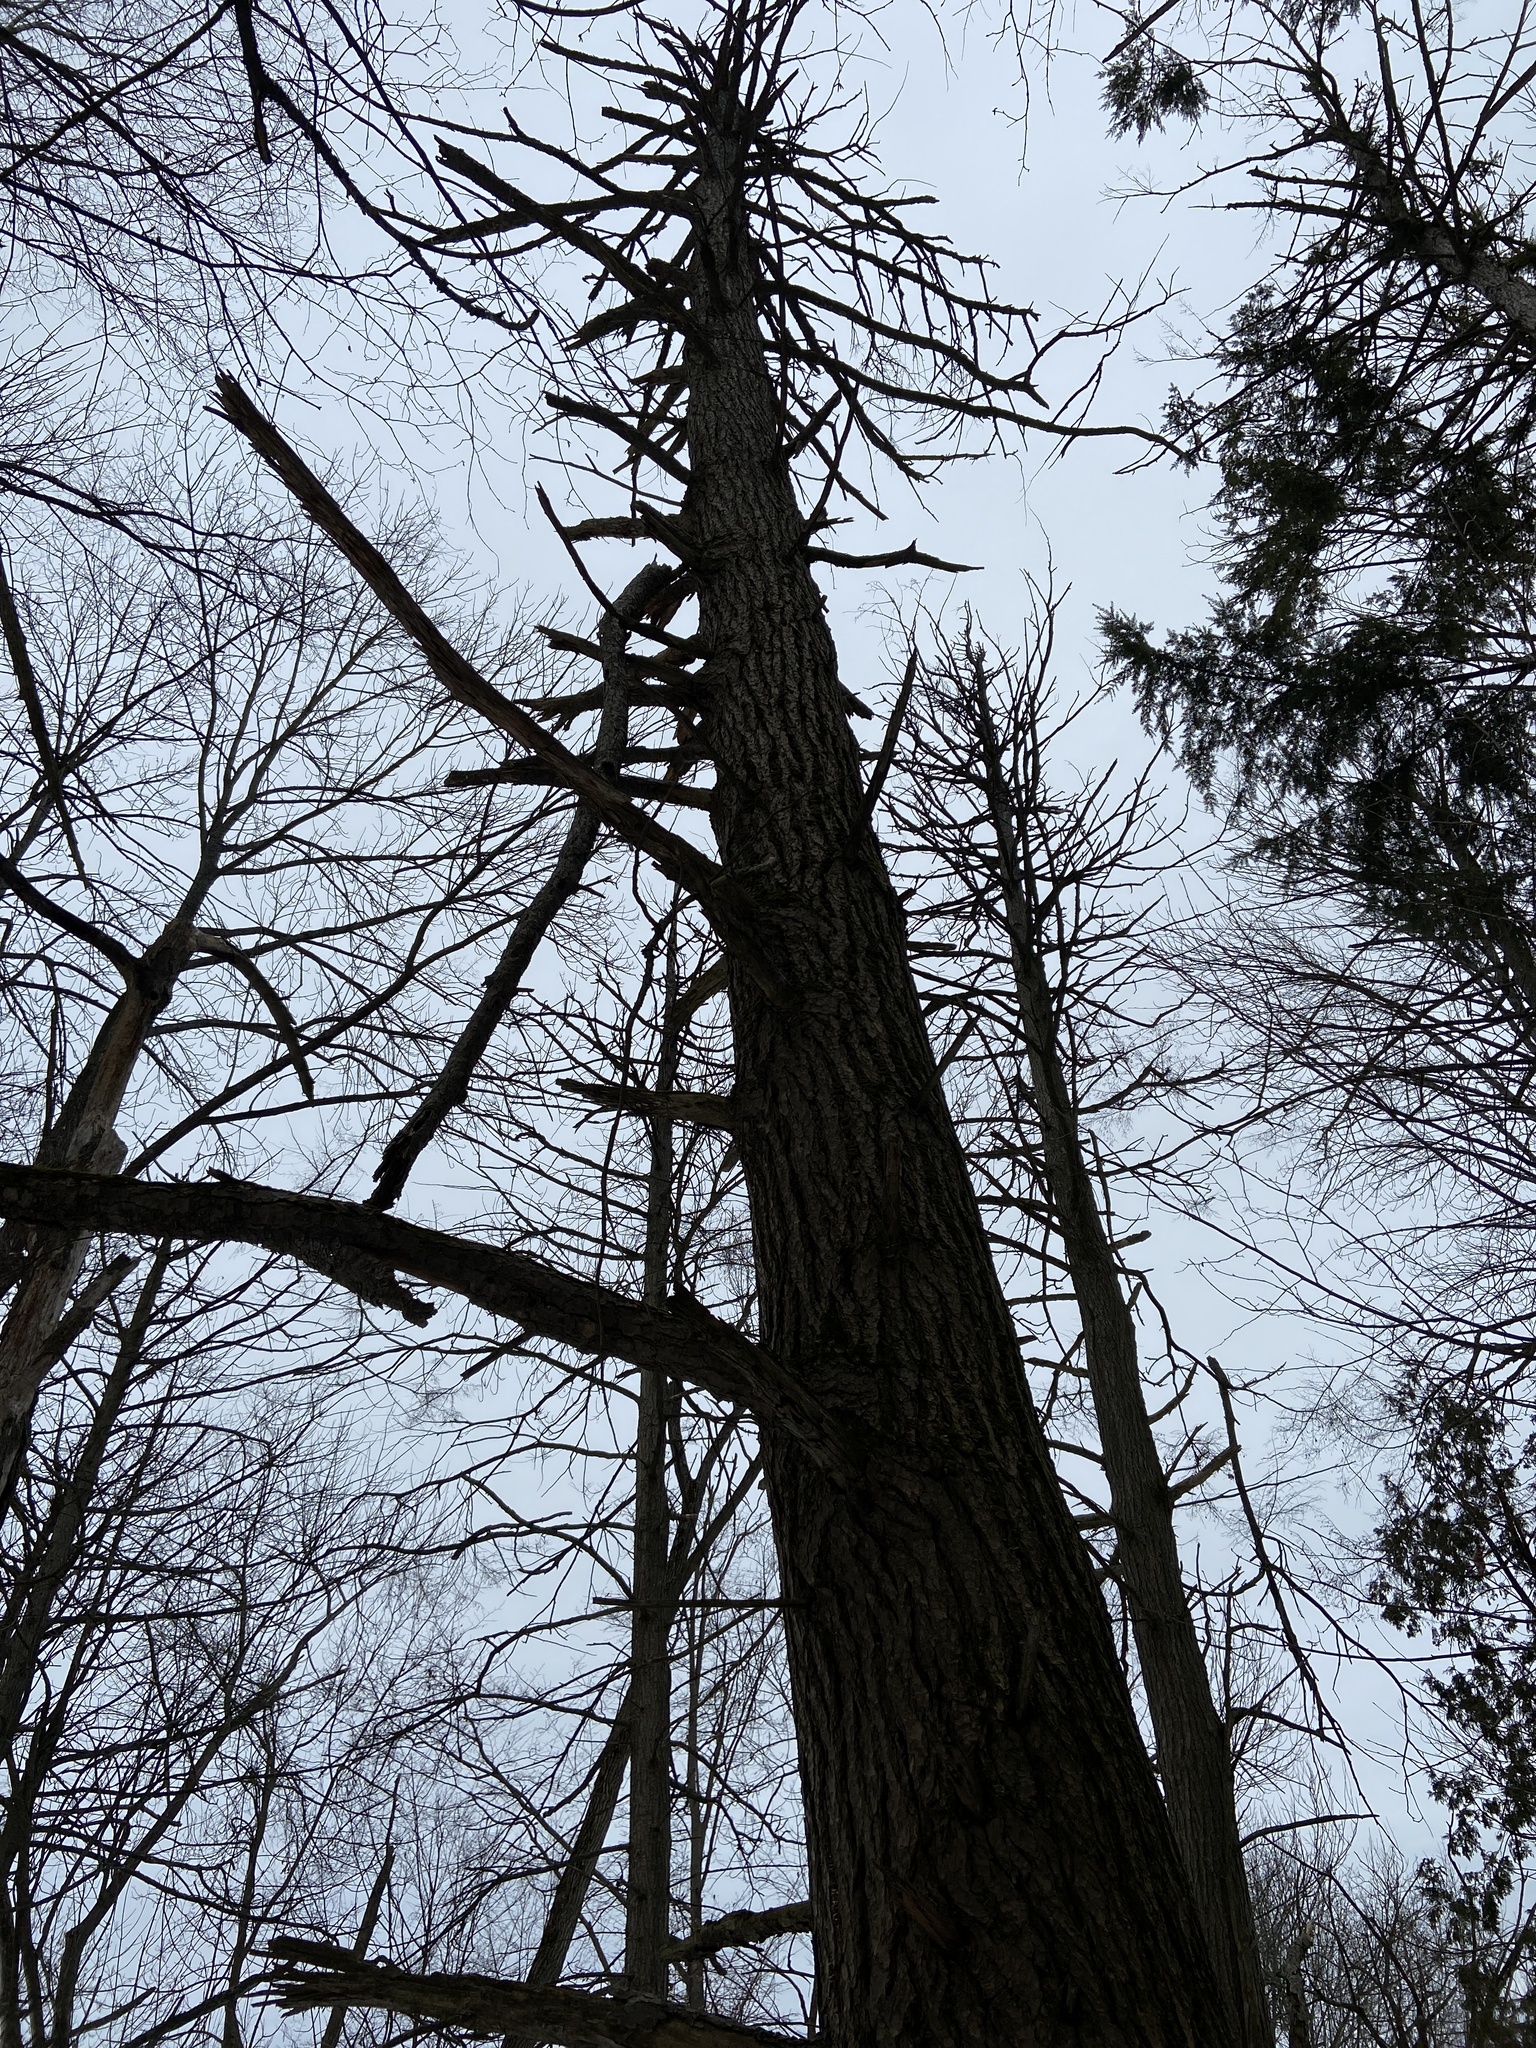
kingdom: Plantae
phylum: Tracheophyta
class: Pinopsida
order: Pinales
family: Pinaceae
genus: Tsuga
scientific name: Tsuga canadensis
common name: Eastern hemlock
